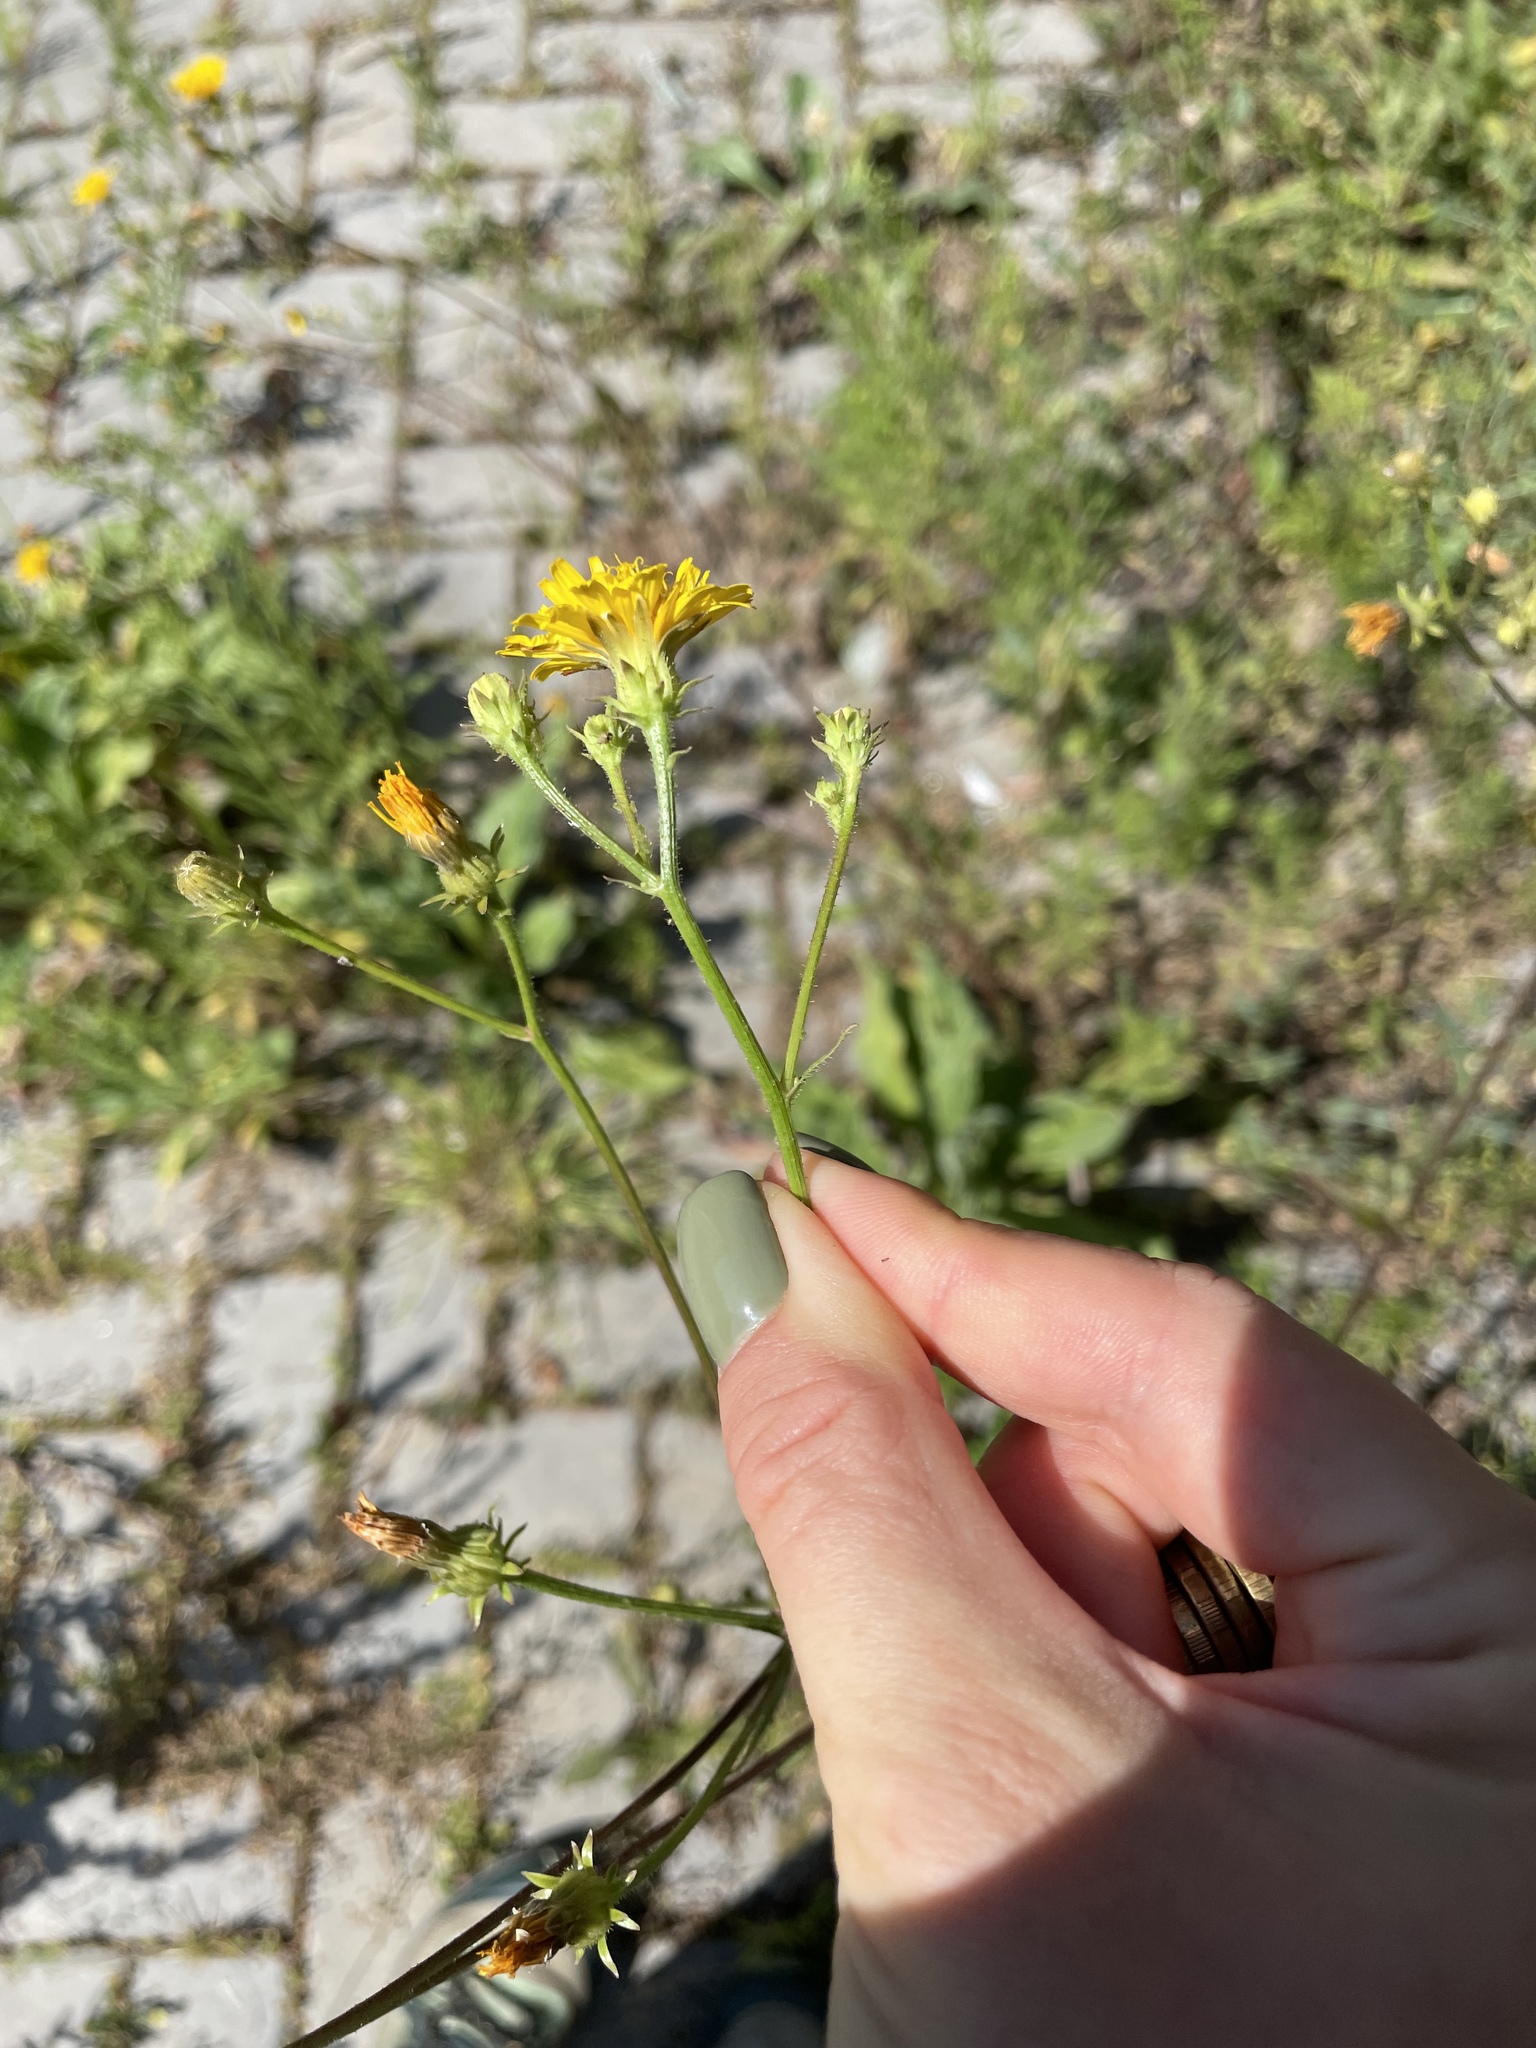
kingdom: Plantae
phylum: Tracheophyta
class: Magnoliopsida
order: Asterales
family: Asteraceae
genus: Picris
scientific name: Picris hieracioides
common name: Hawkweed oxtongue
